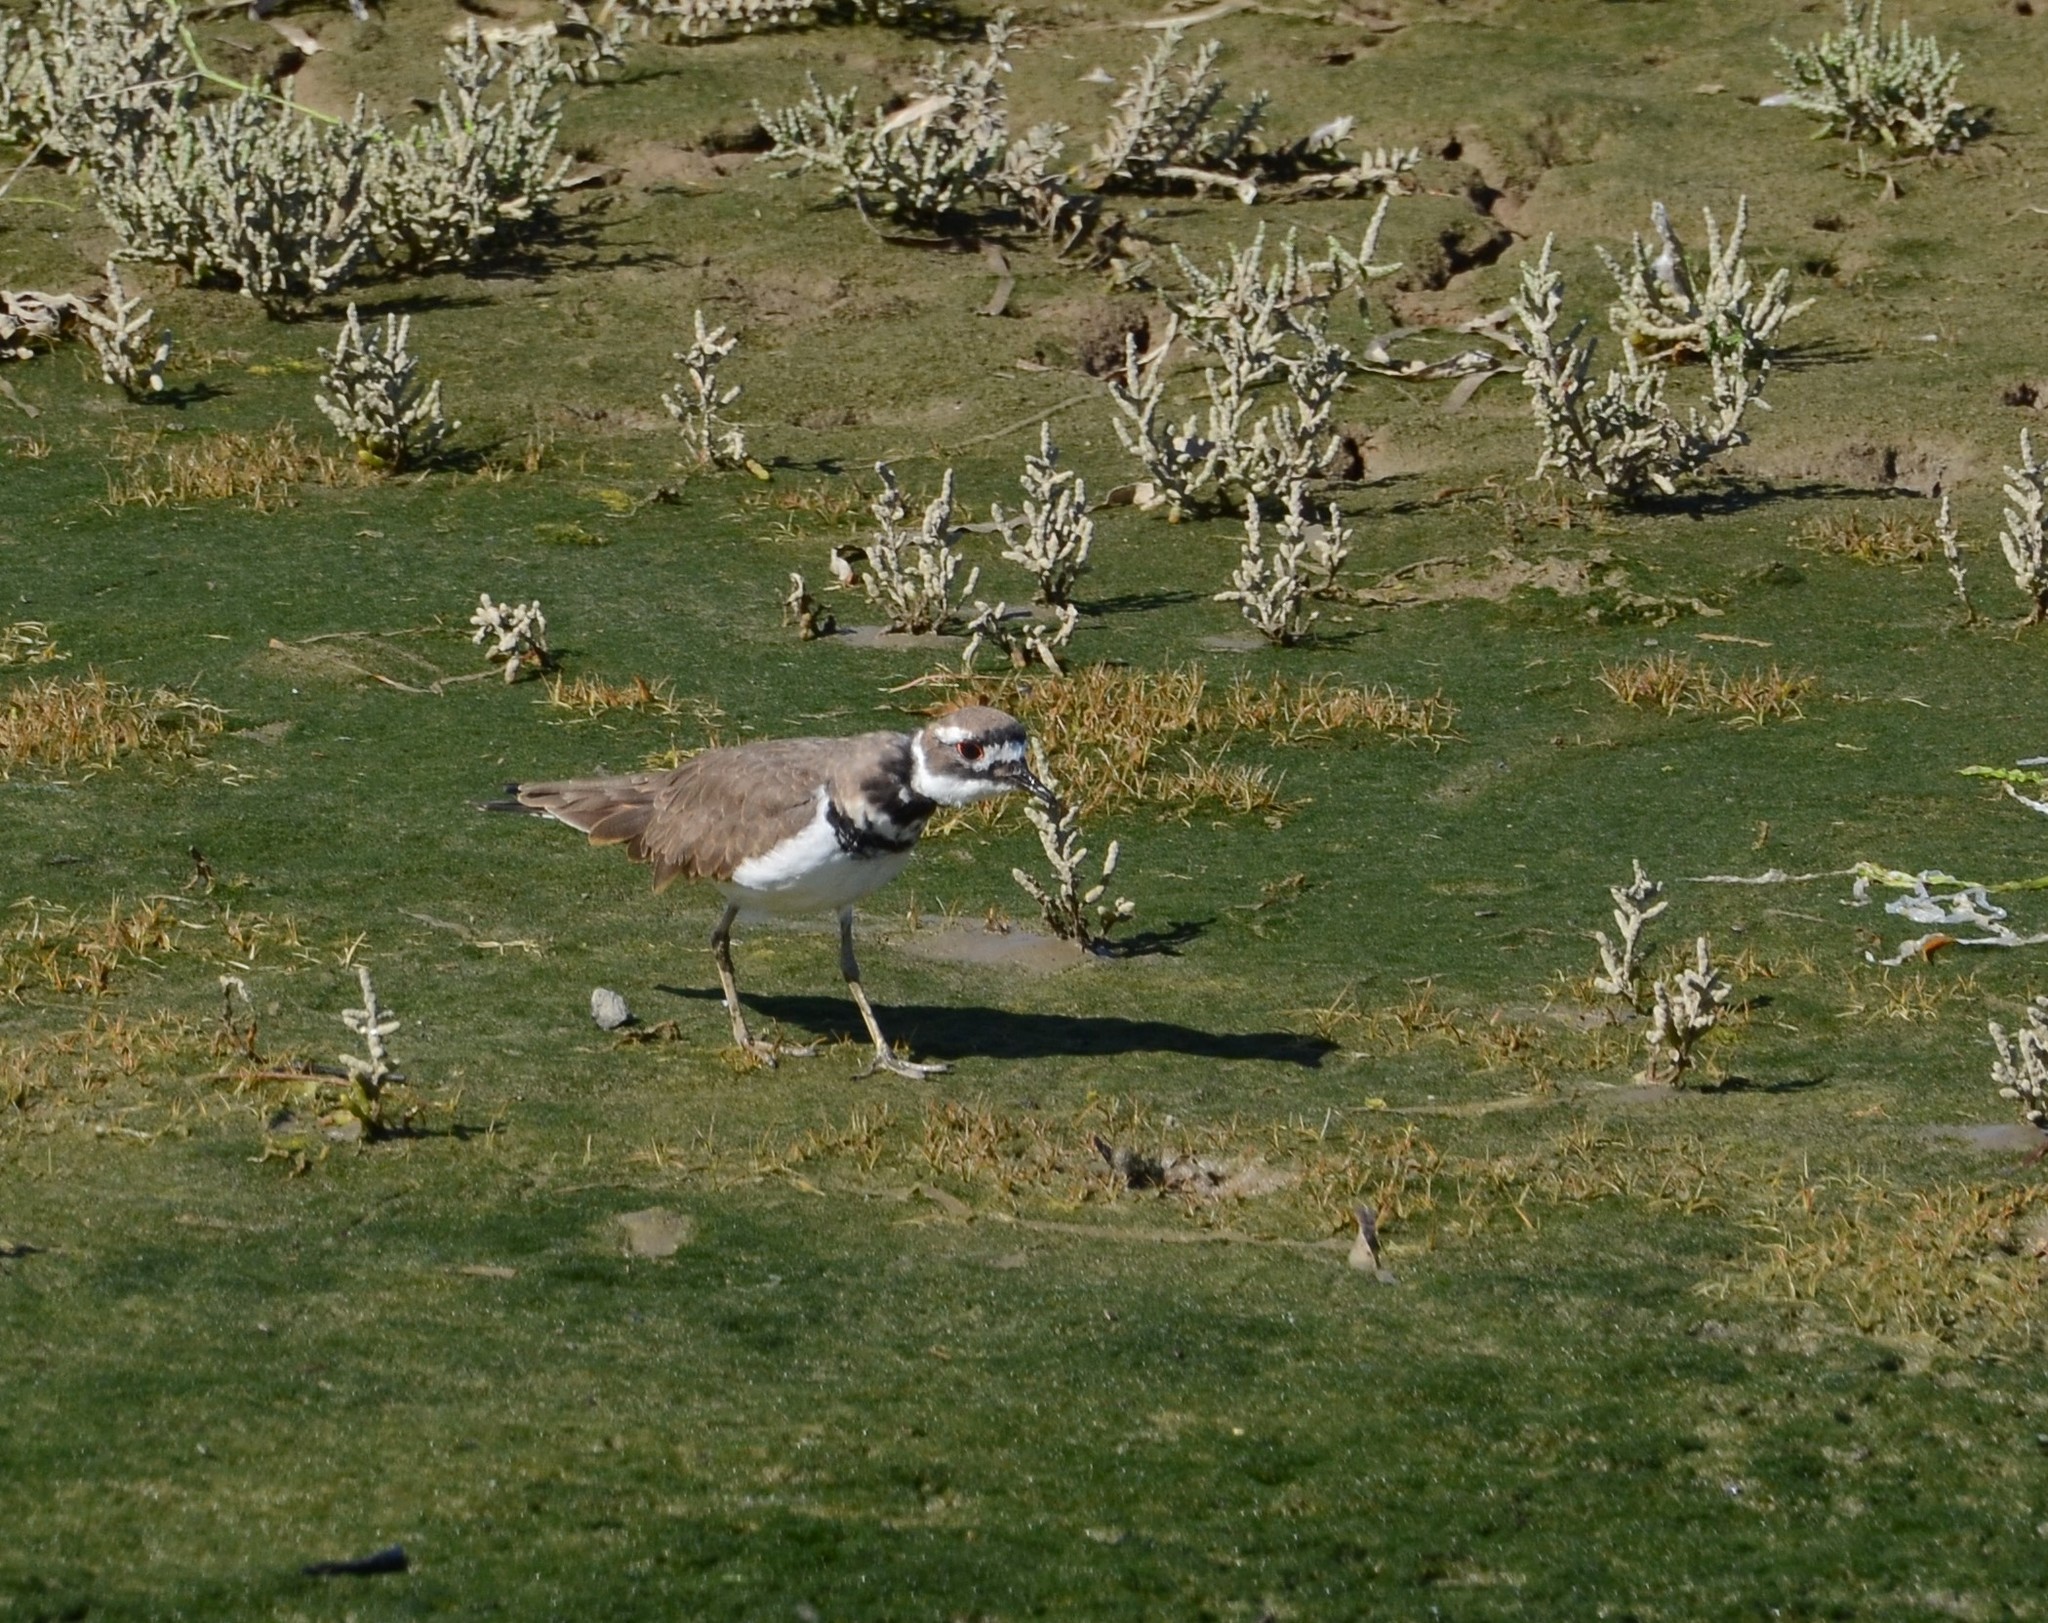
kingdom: Animalia
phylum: Chordata
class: Aves
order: Charadriiformes
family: Charadriidae
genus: Charadrius
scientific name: Charadrius vociferus
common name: Killdeer
